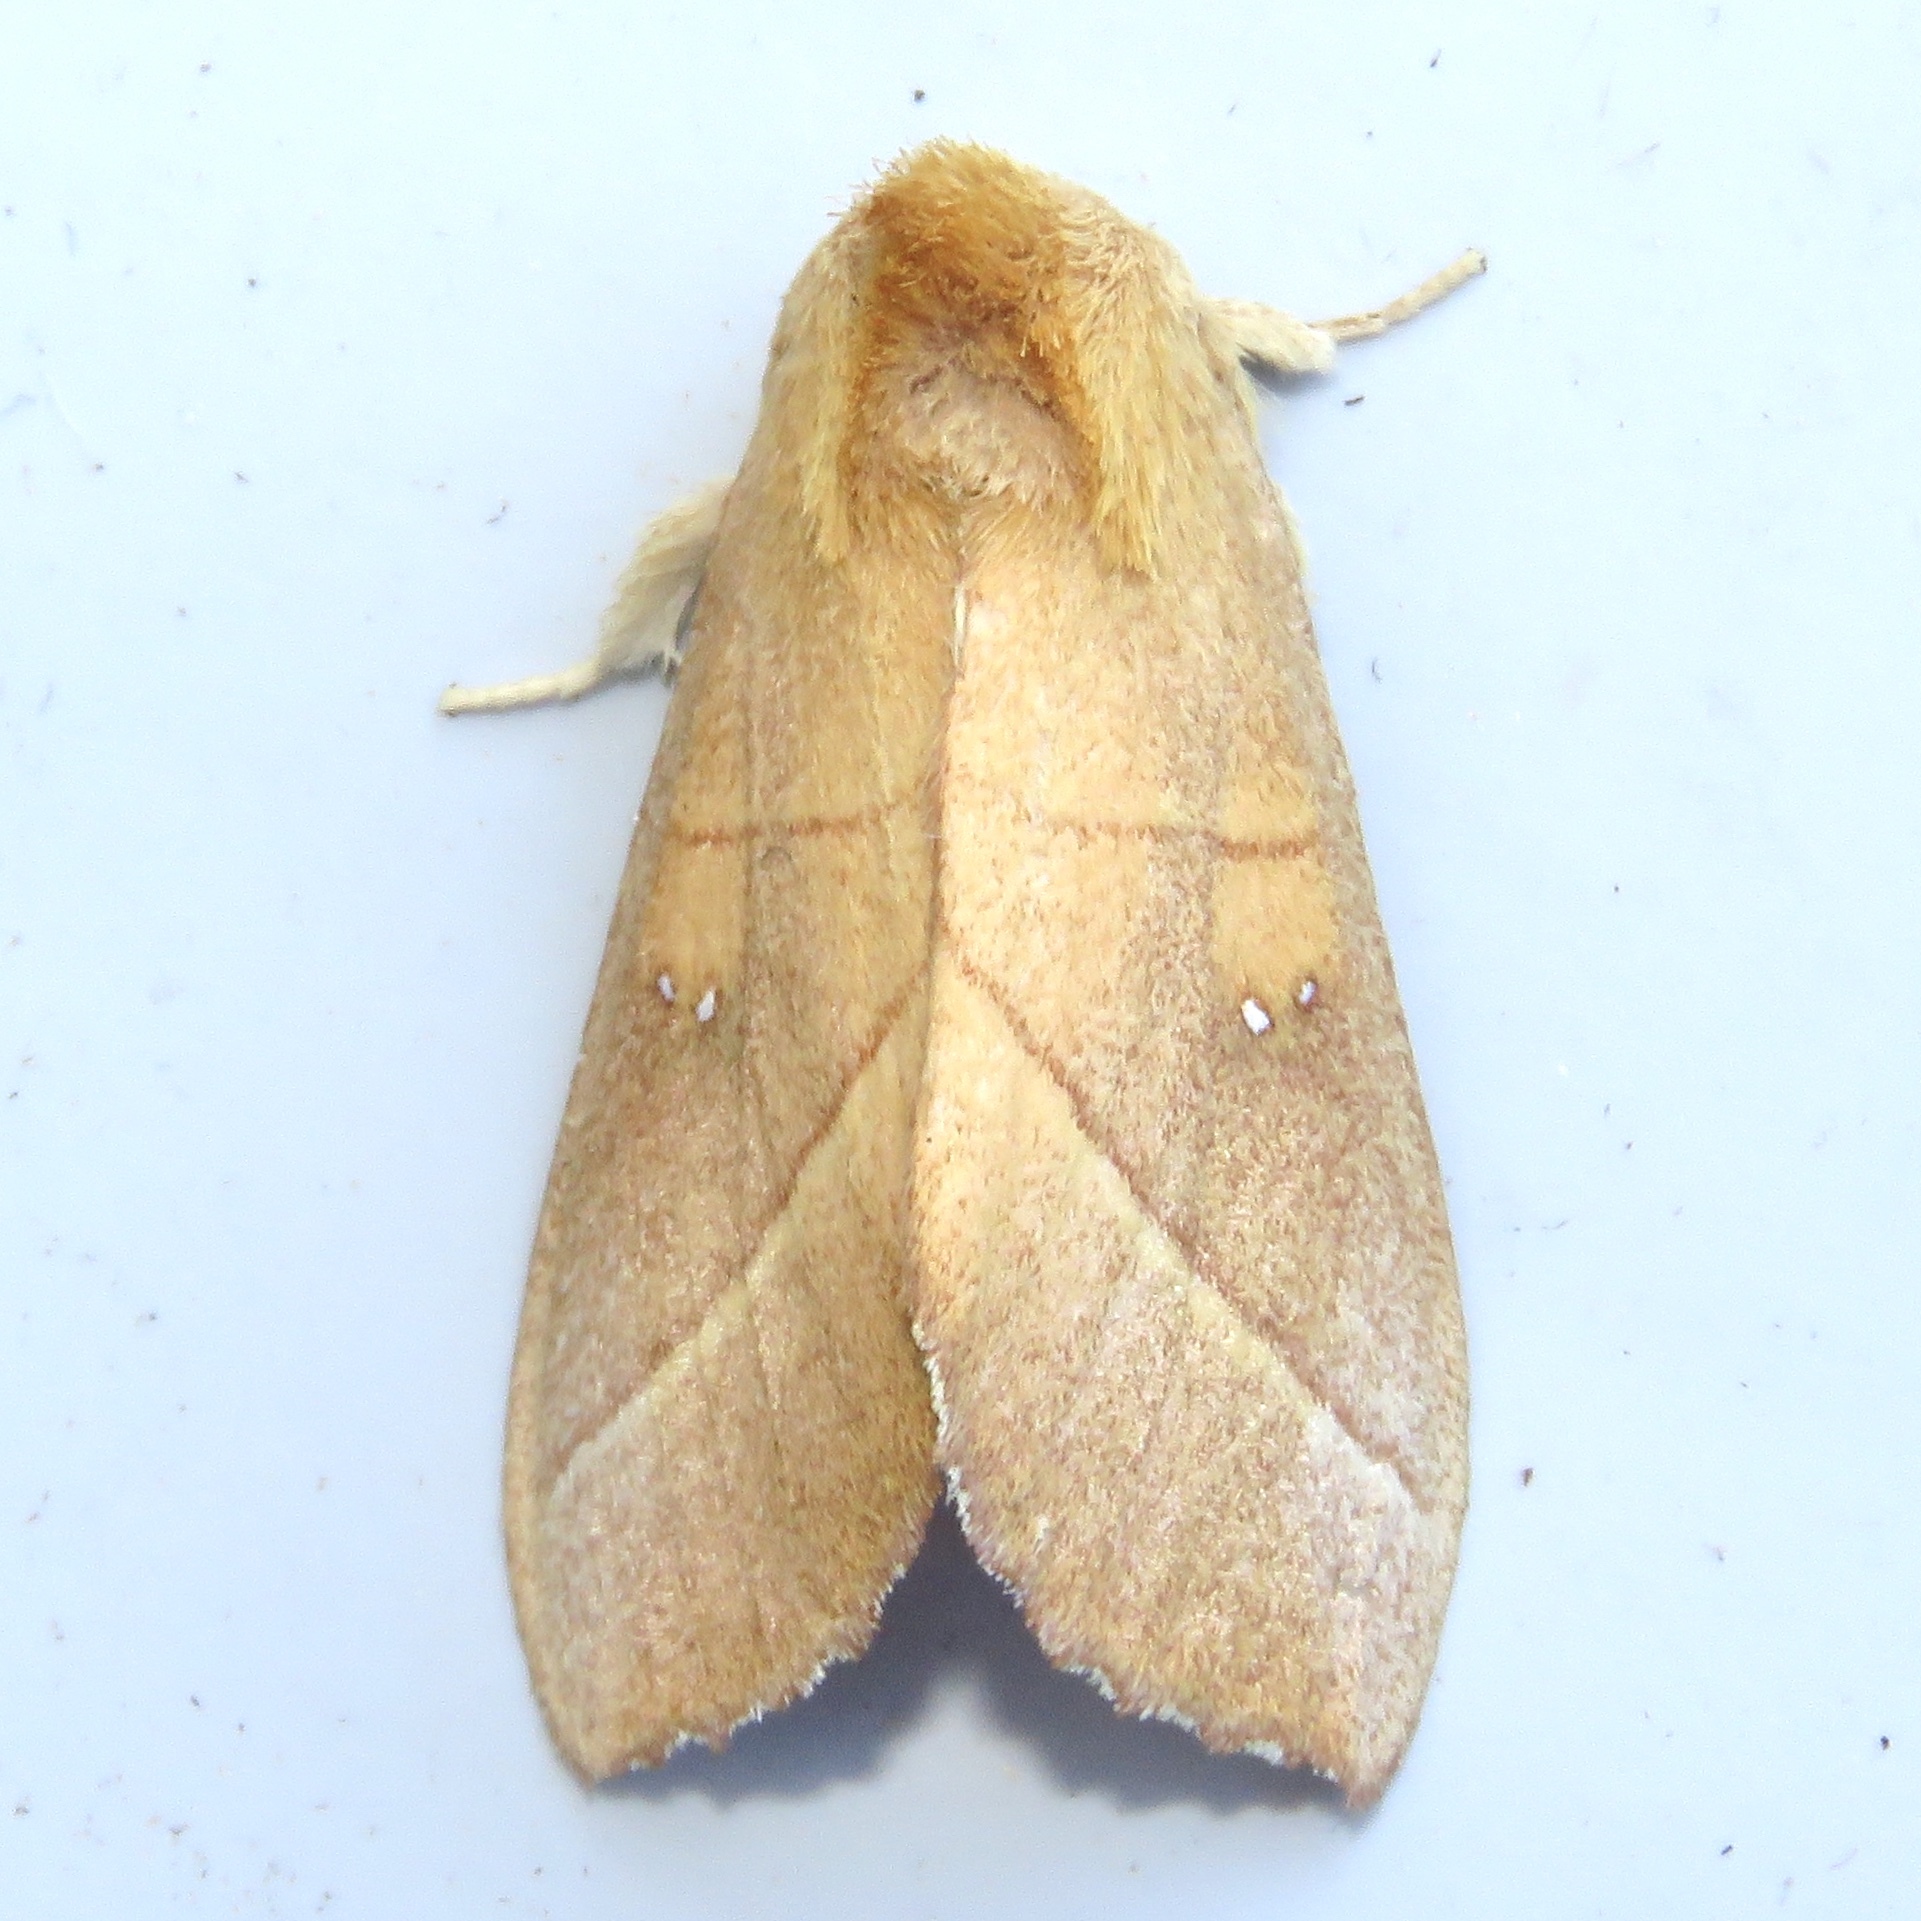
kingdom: Animalia
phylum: Arthropoda
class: Insecta
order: Lepidoptera
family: Notodontidae
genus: Nadata
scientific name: Nadata gibbosa
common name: White-dotted prominent
